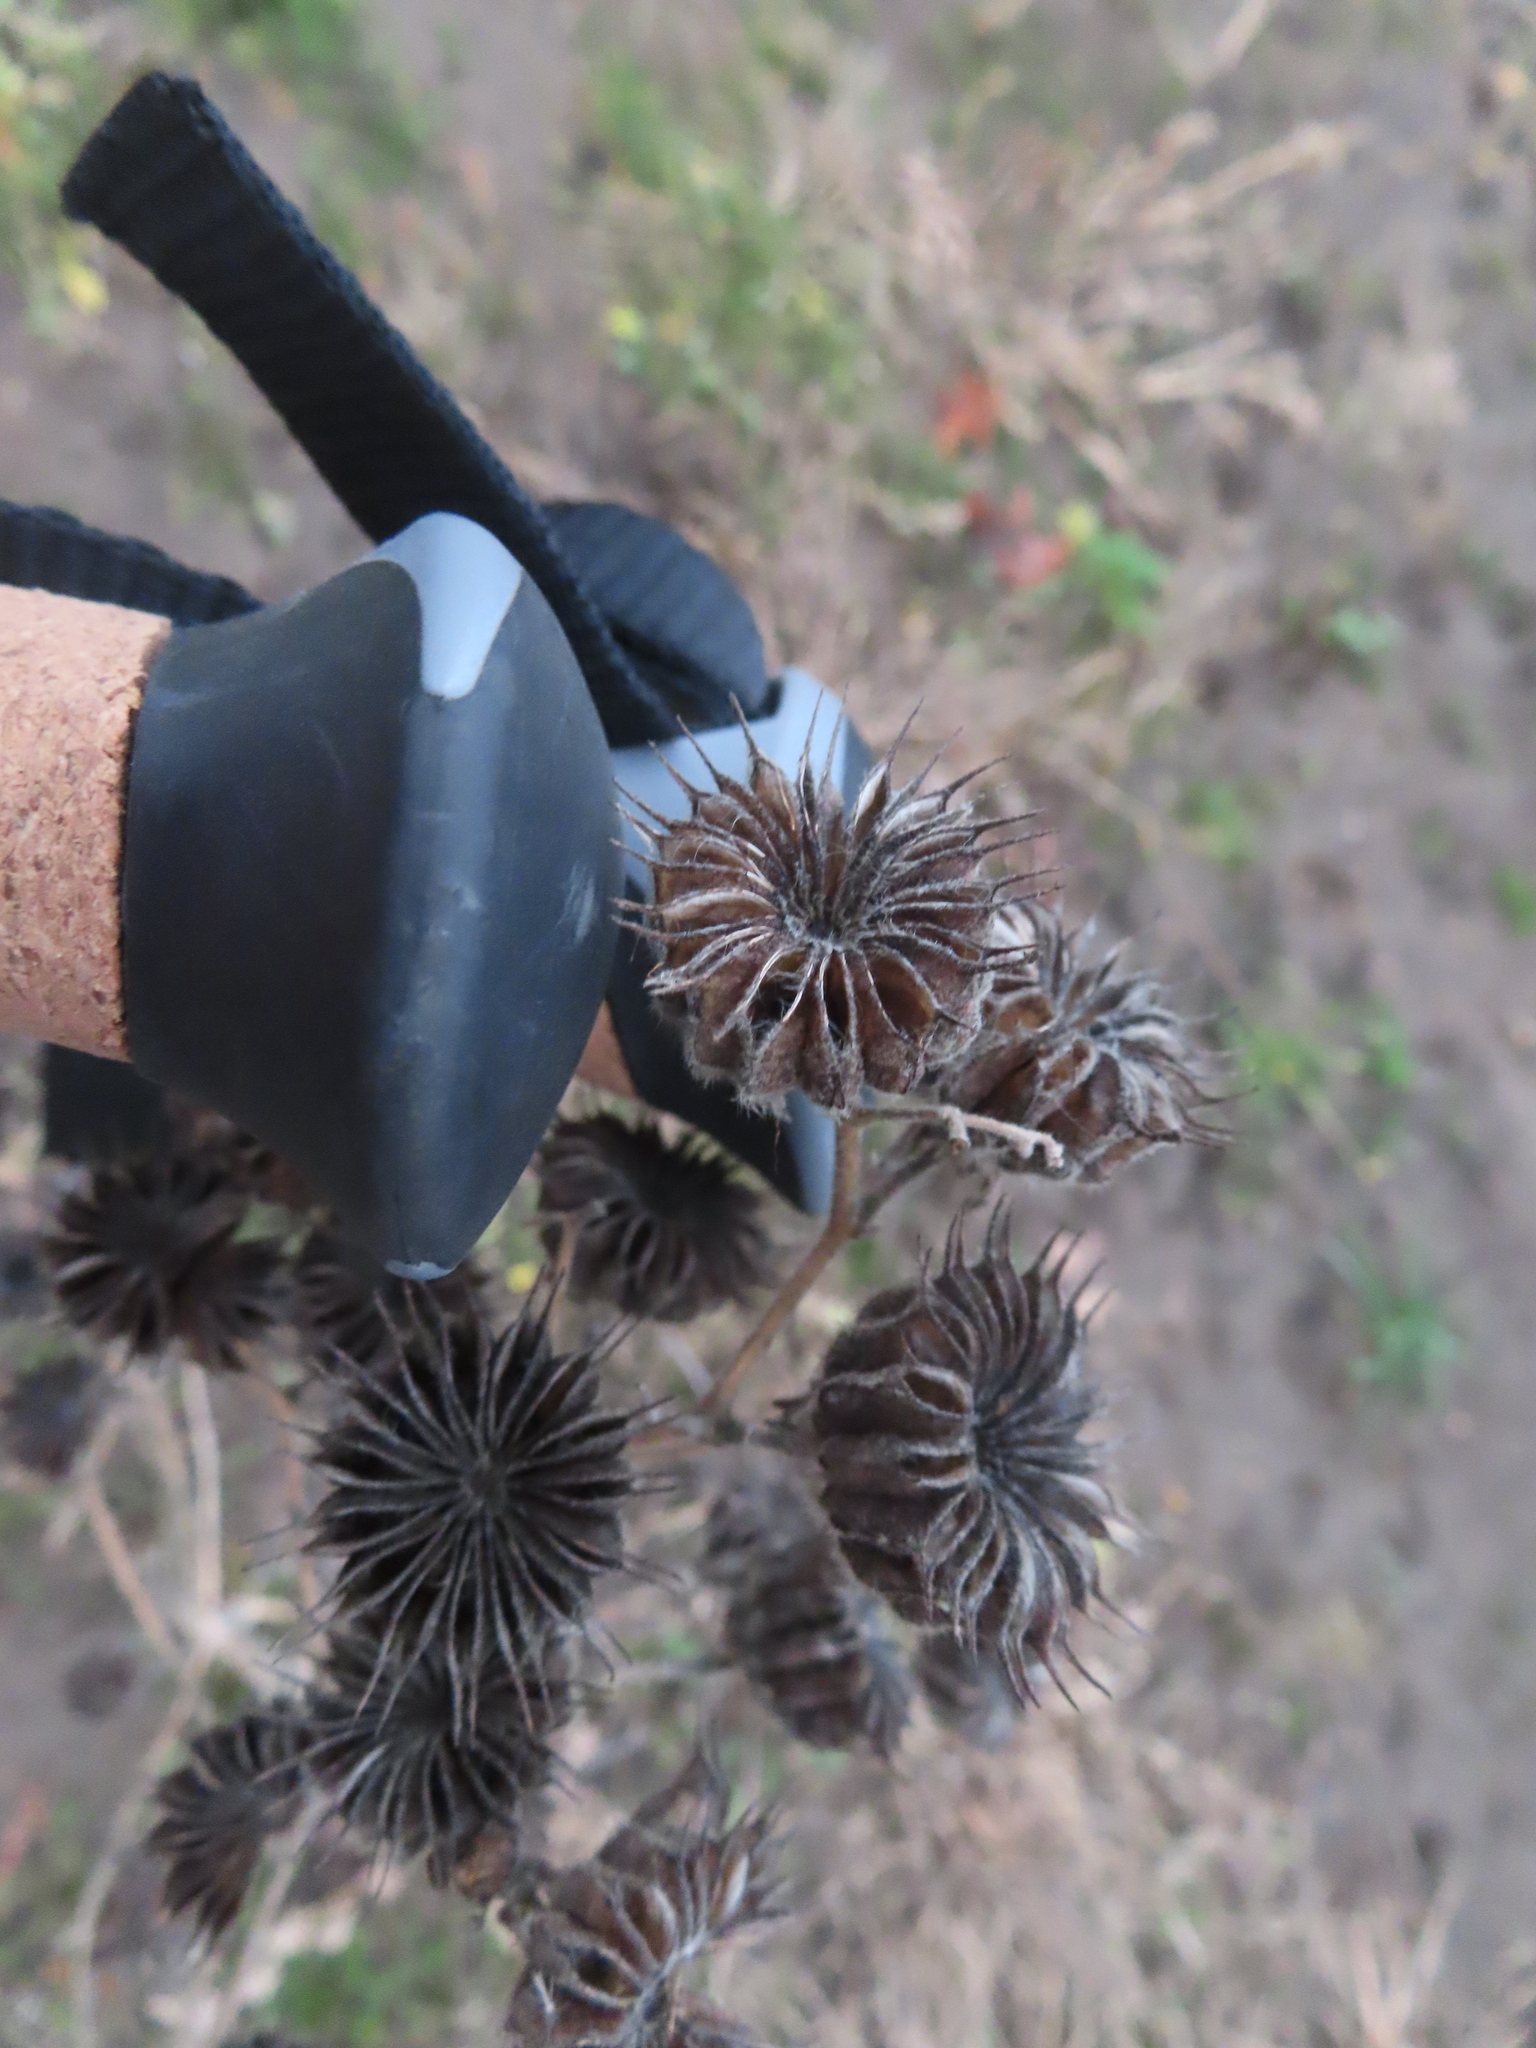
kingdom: Plantae
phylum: Tracheophyta
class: Magnoliopsida
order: Malvales
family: Malvaceae
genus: Abutilon
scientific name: Abutilon theophrasti
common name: Velvetleaf
